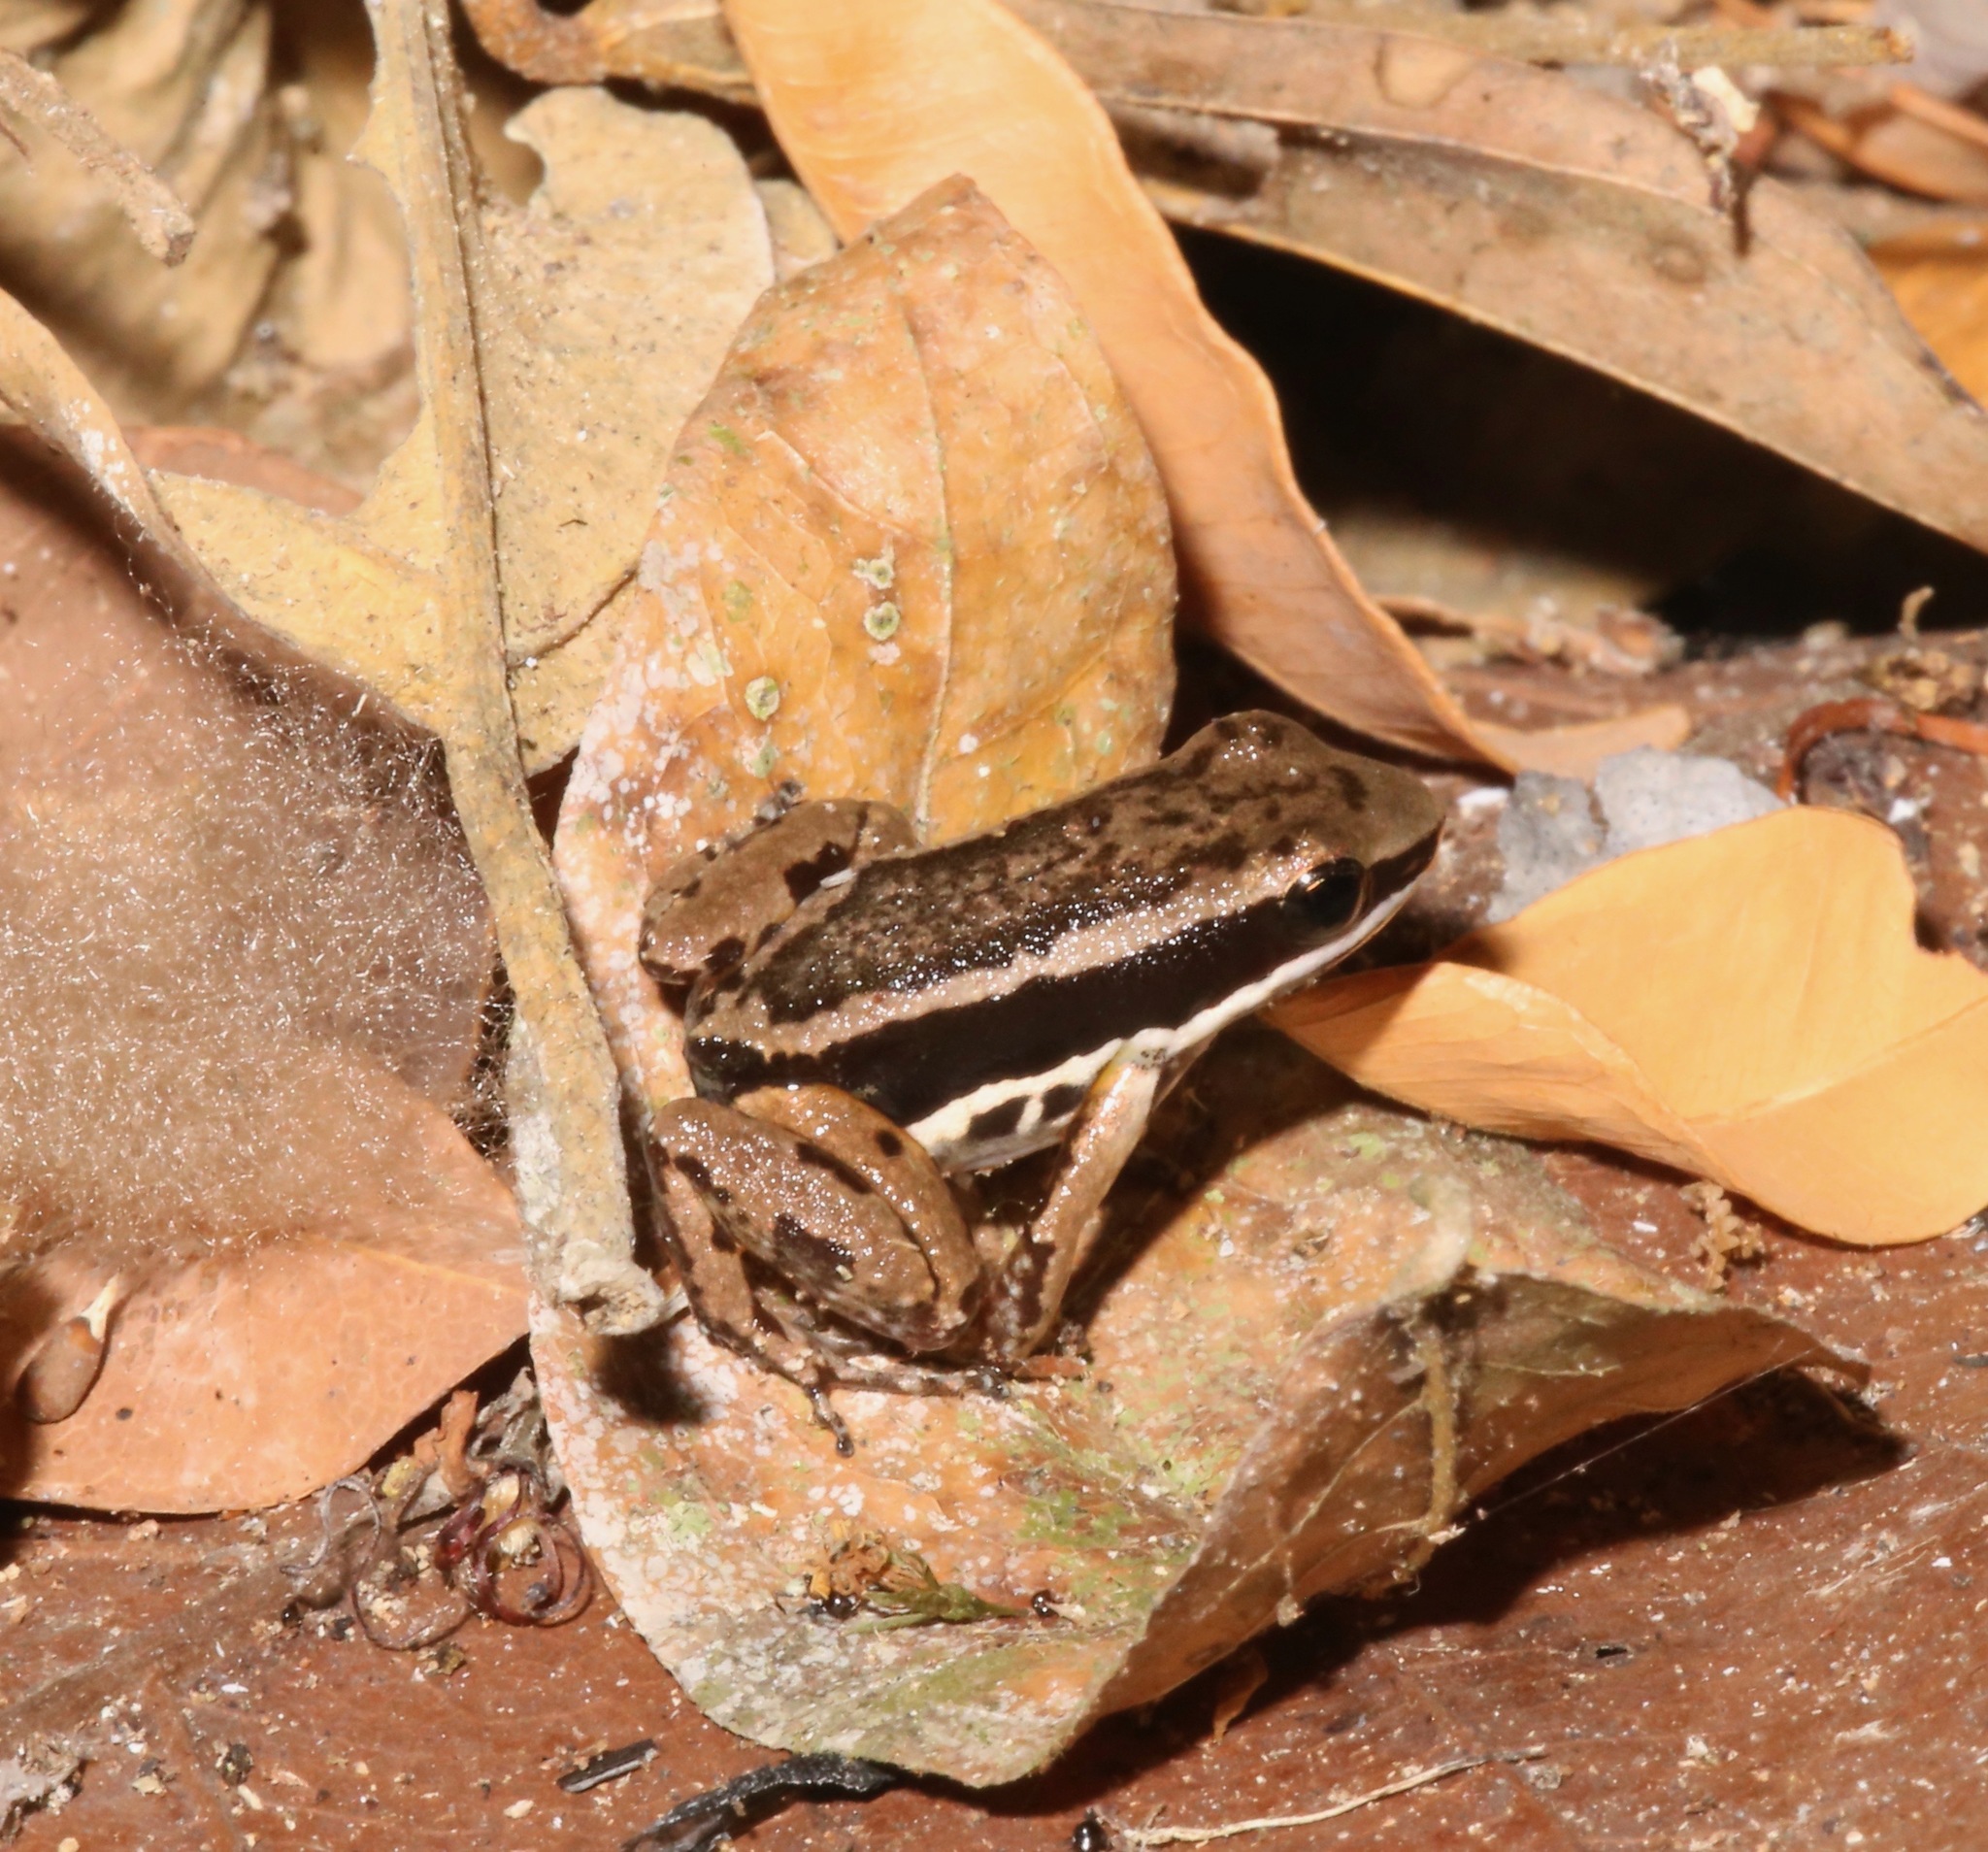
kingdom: Animalia
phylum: Chordata
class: Amphibia
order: Anura
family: Aromobatidae
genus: Allobates
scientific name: Allobates talamancae
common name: Talamanca rocket frog
